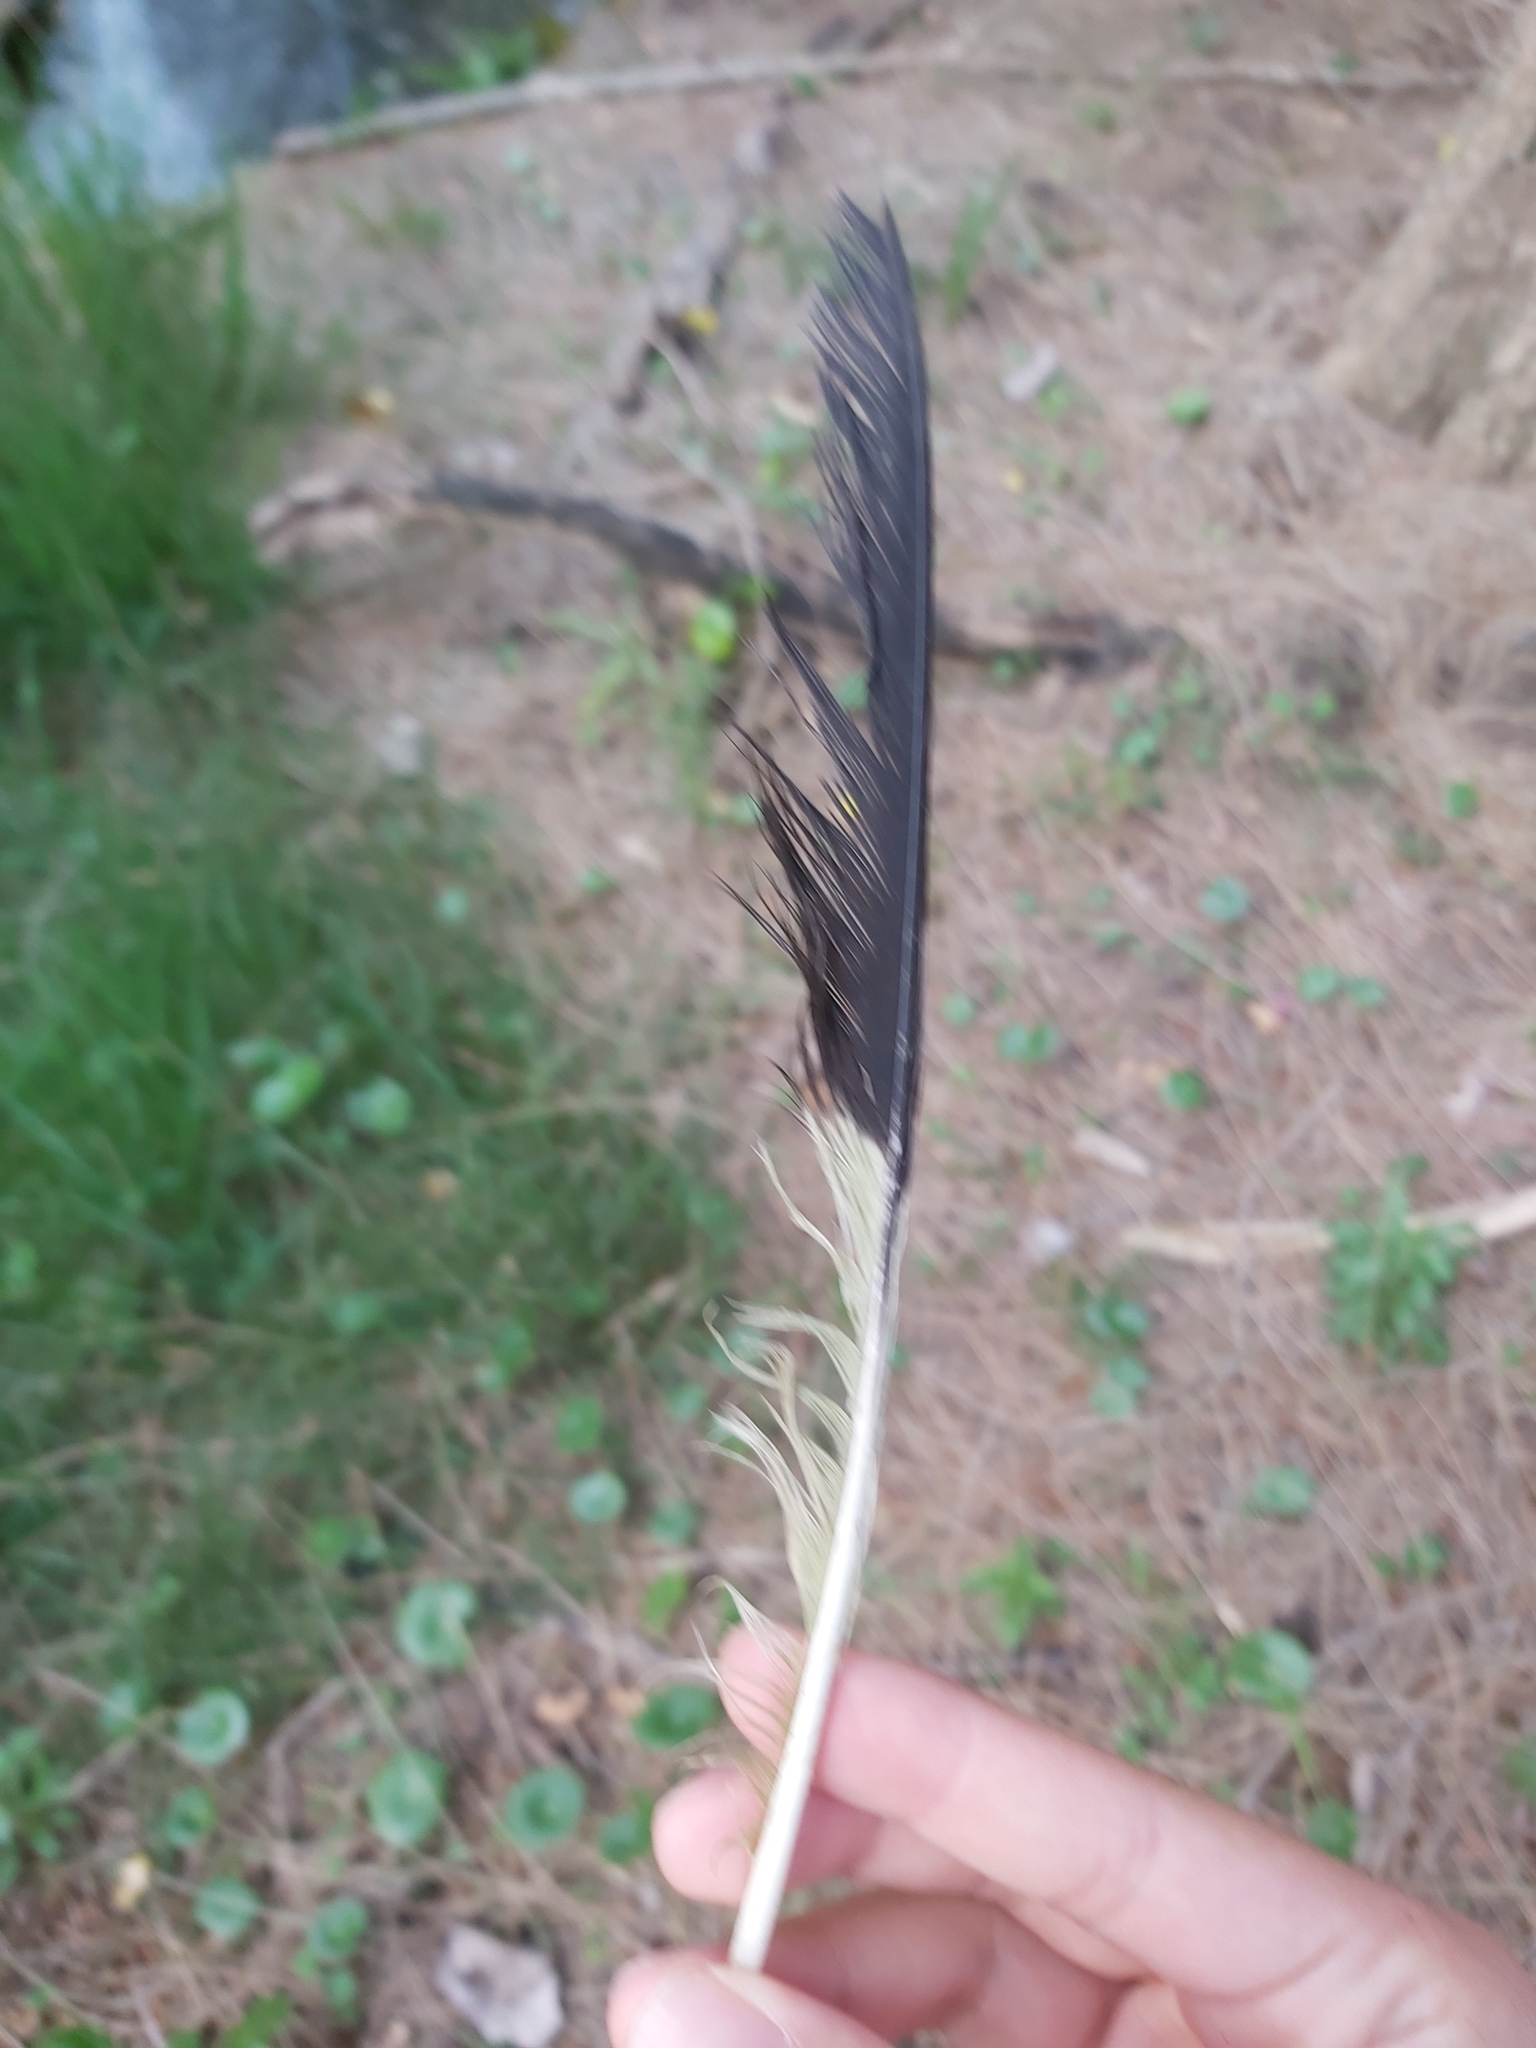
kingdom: Animalia
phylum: Chordata
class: Aves
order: Passeriformes
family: Cracticidae
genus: Strepera
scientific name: Strepera graculina
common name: Pied currawong
